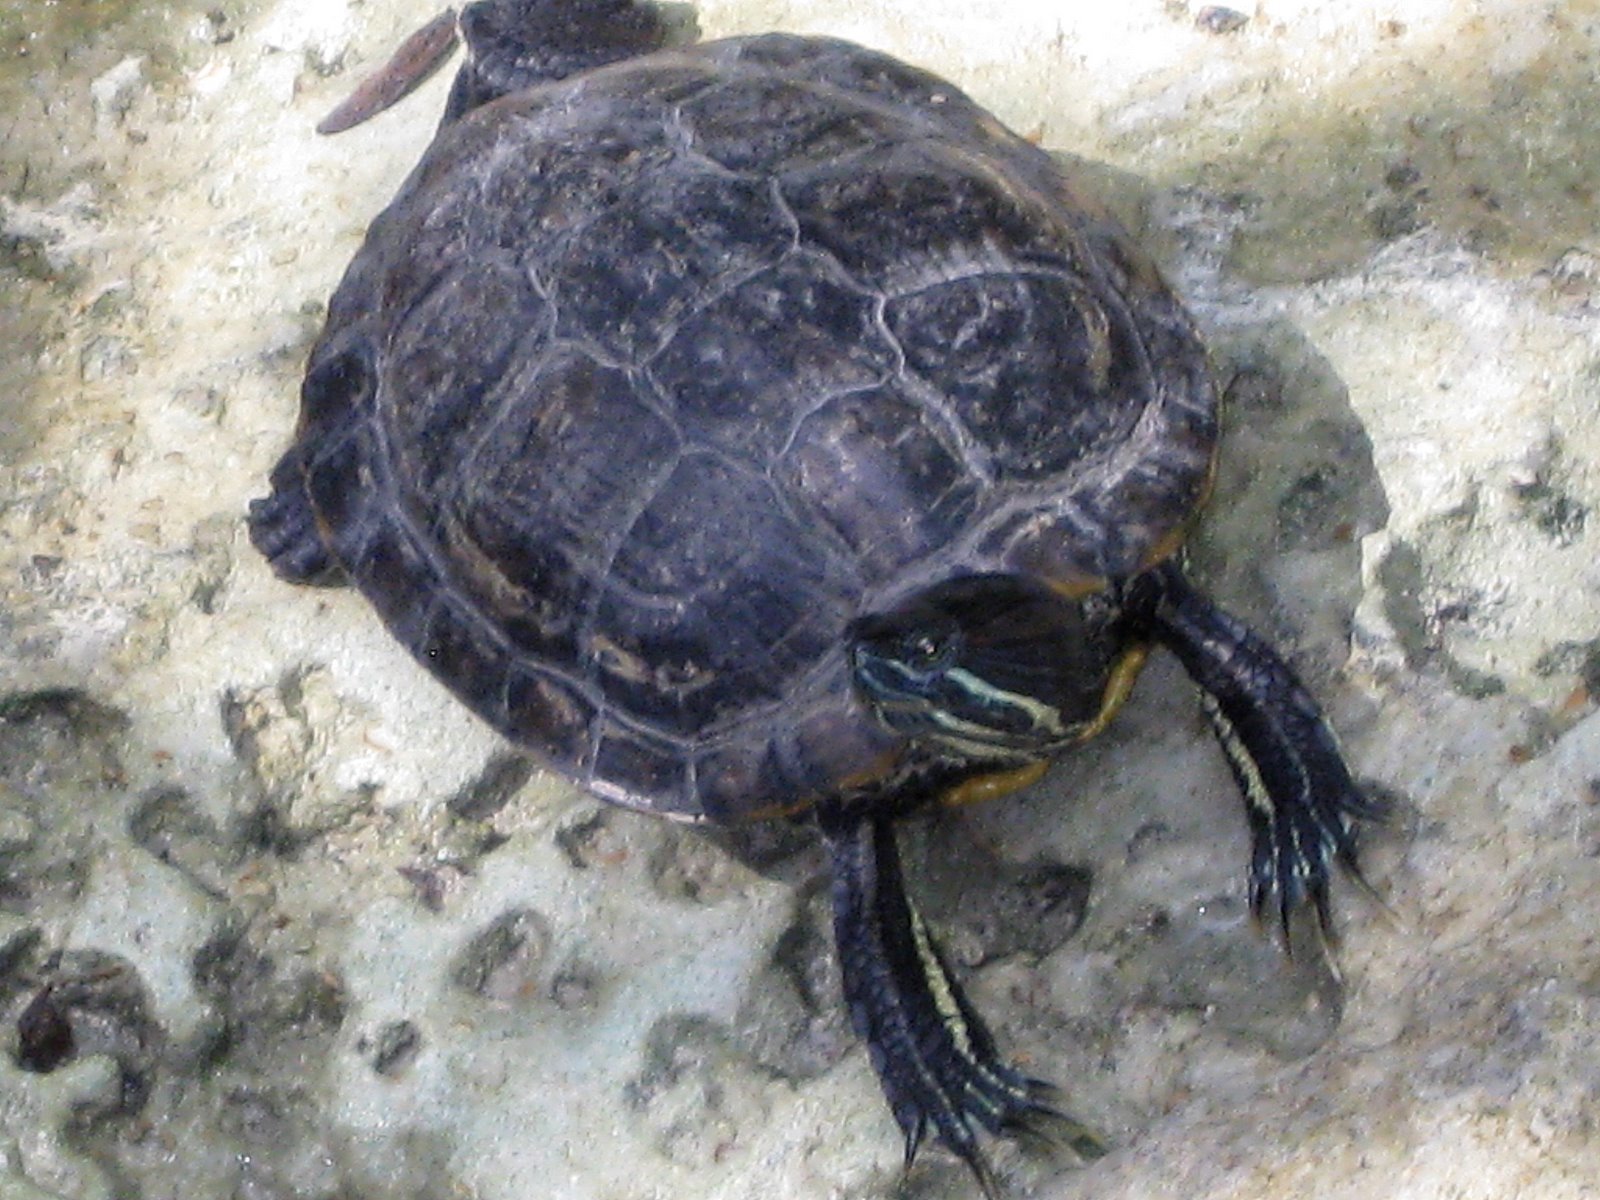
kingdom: Animalia
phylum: Chordata
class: Testudines
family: Emydidae
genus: Trachemys
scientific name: Trachemys scripta
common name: Slider
